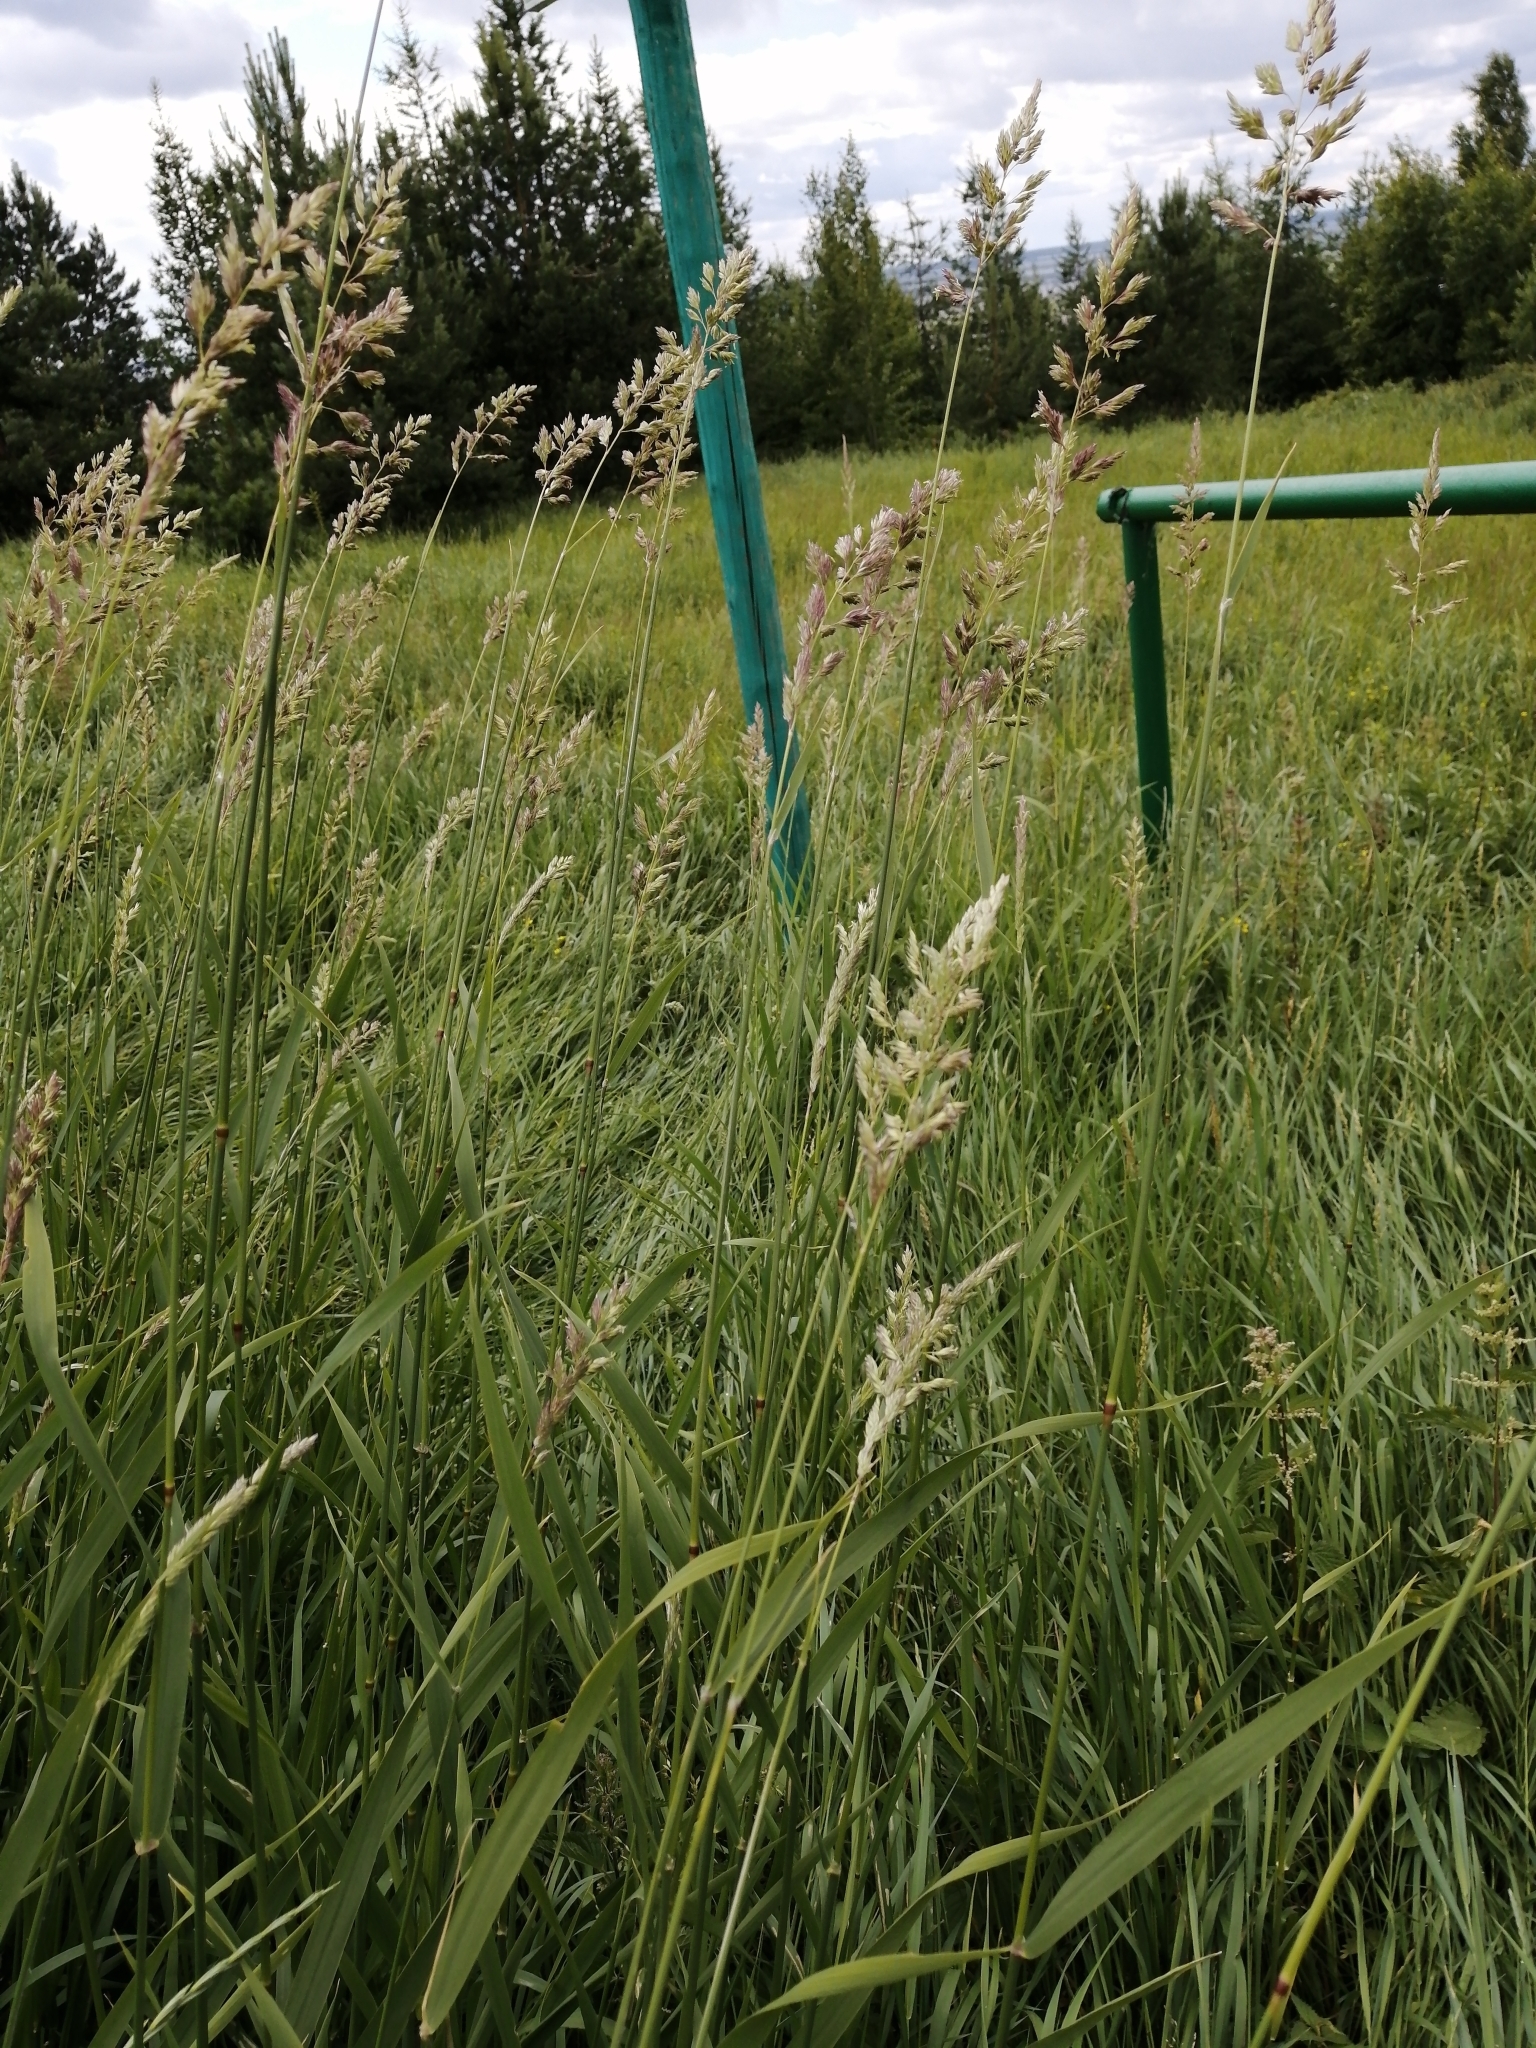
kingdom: Plantae
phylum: Tracheophyta
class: Liliopsida
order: Poales
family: Poaceae
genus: Phalaris
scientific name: Phalaris arundinacea
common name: Reed canary-grass
